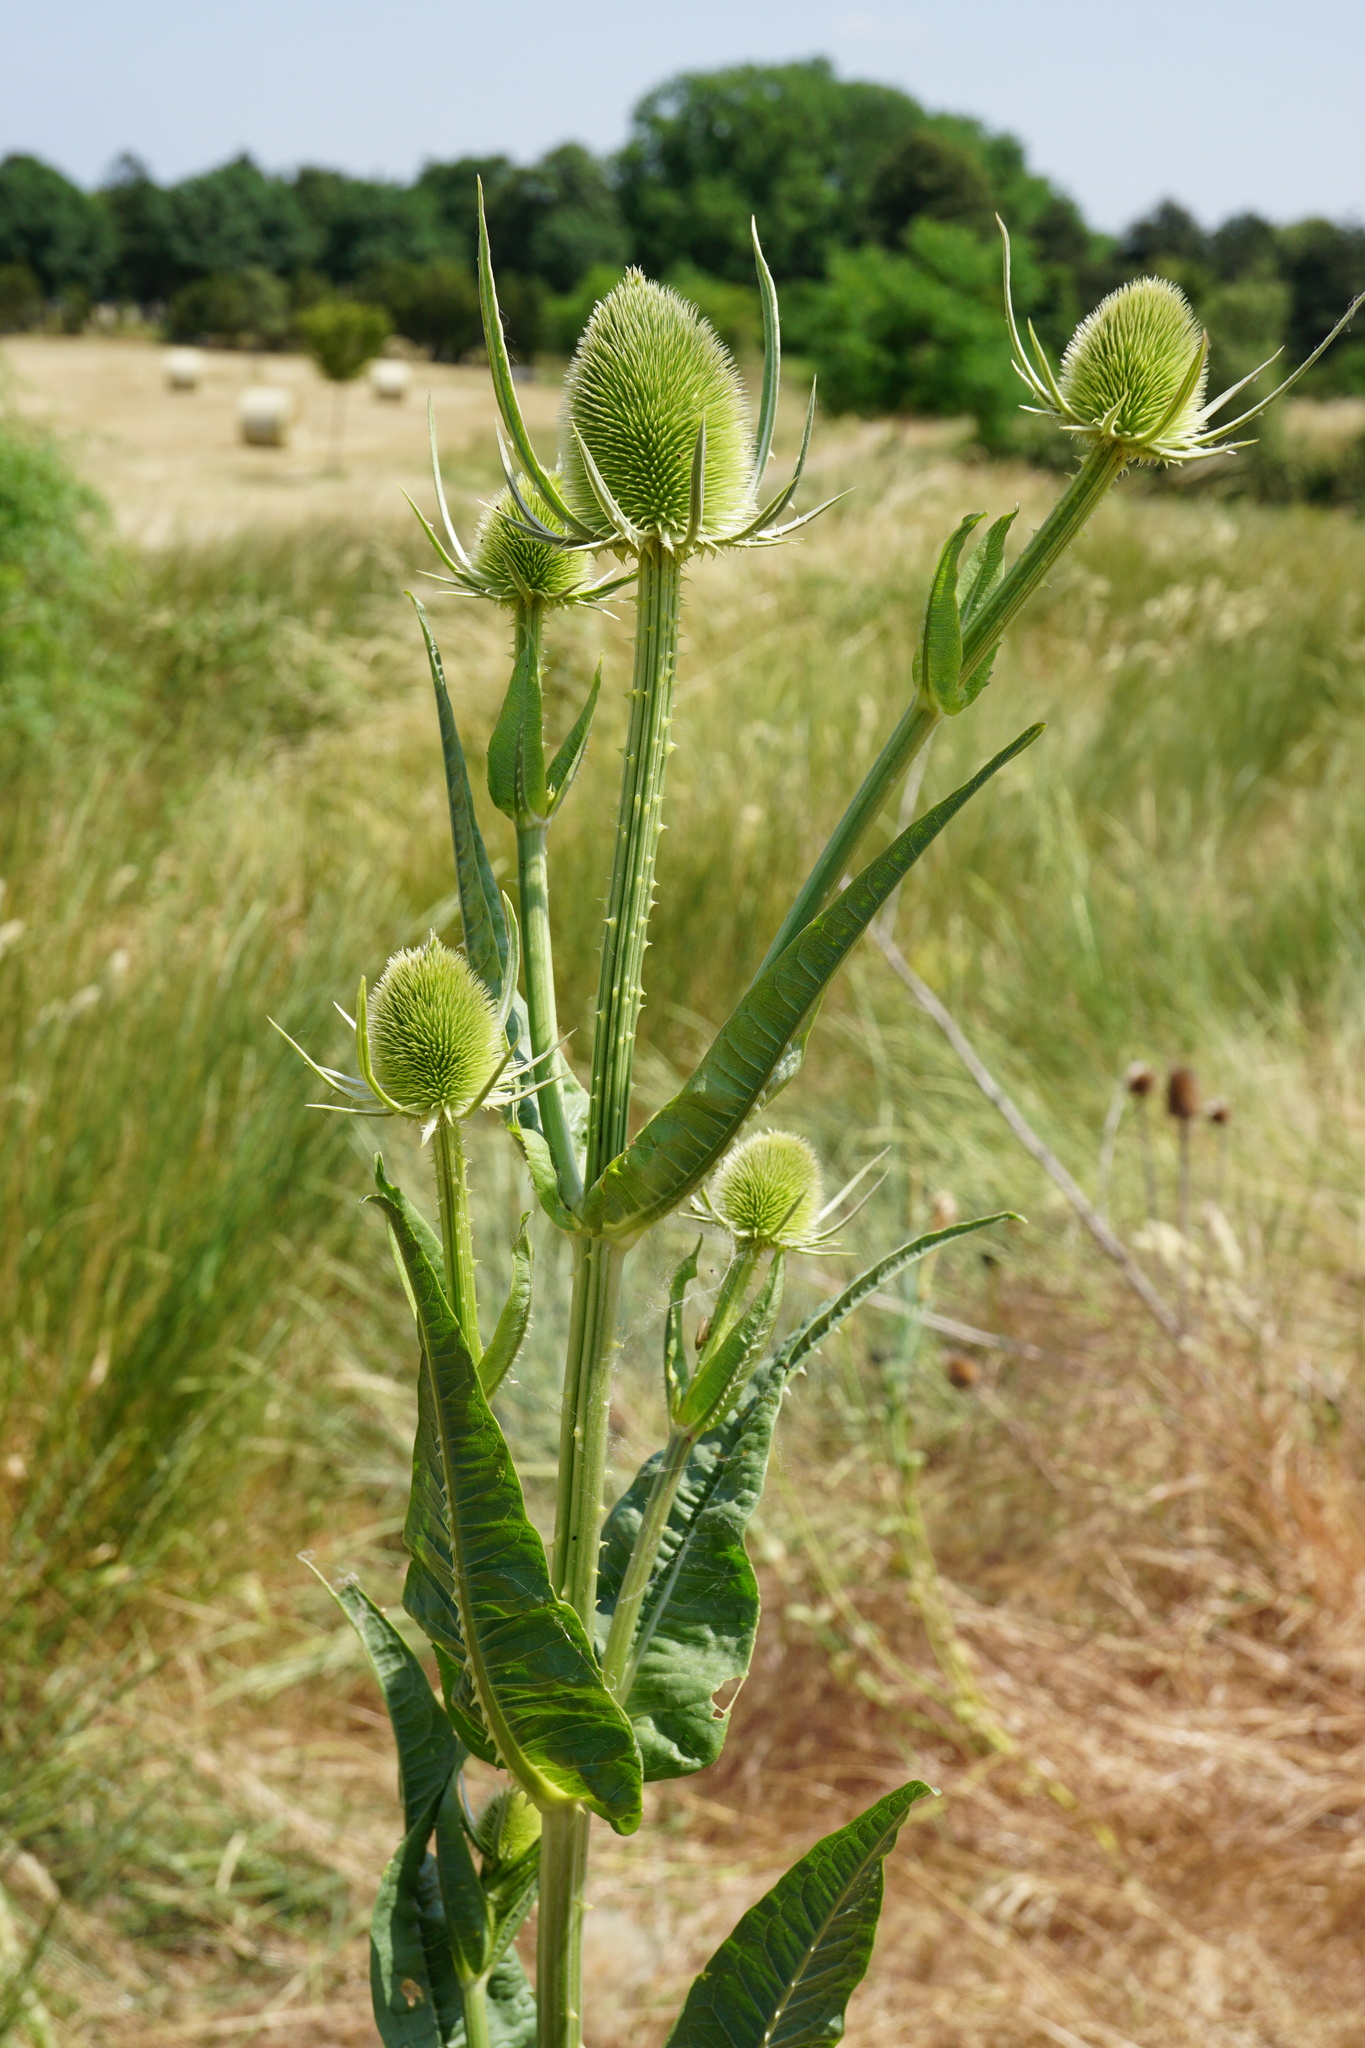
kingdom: Plantae
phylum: Tracheophyta
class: Magnoliopsida
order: Dipsacales
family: Caprifoliaceae
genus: Dipsacus
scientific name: Dipsacus fullonum
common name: Teasel
